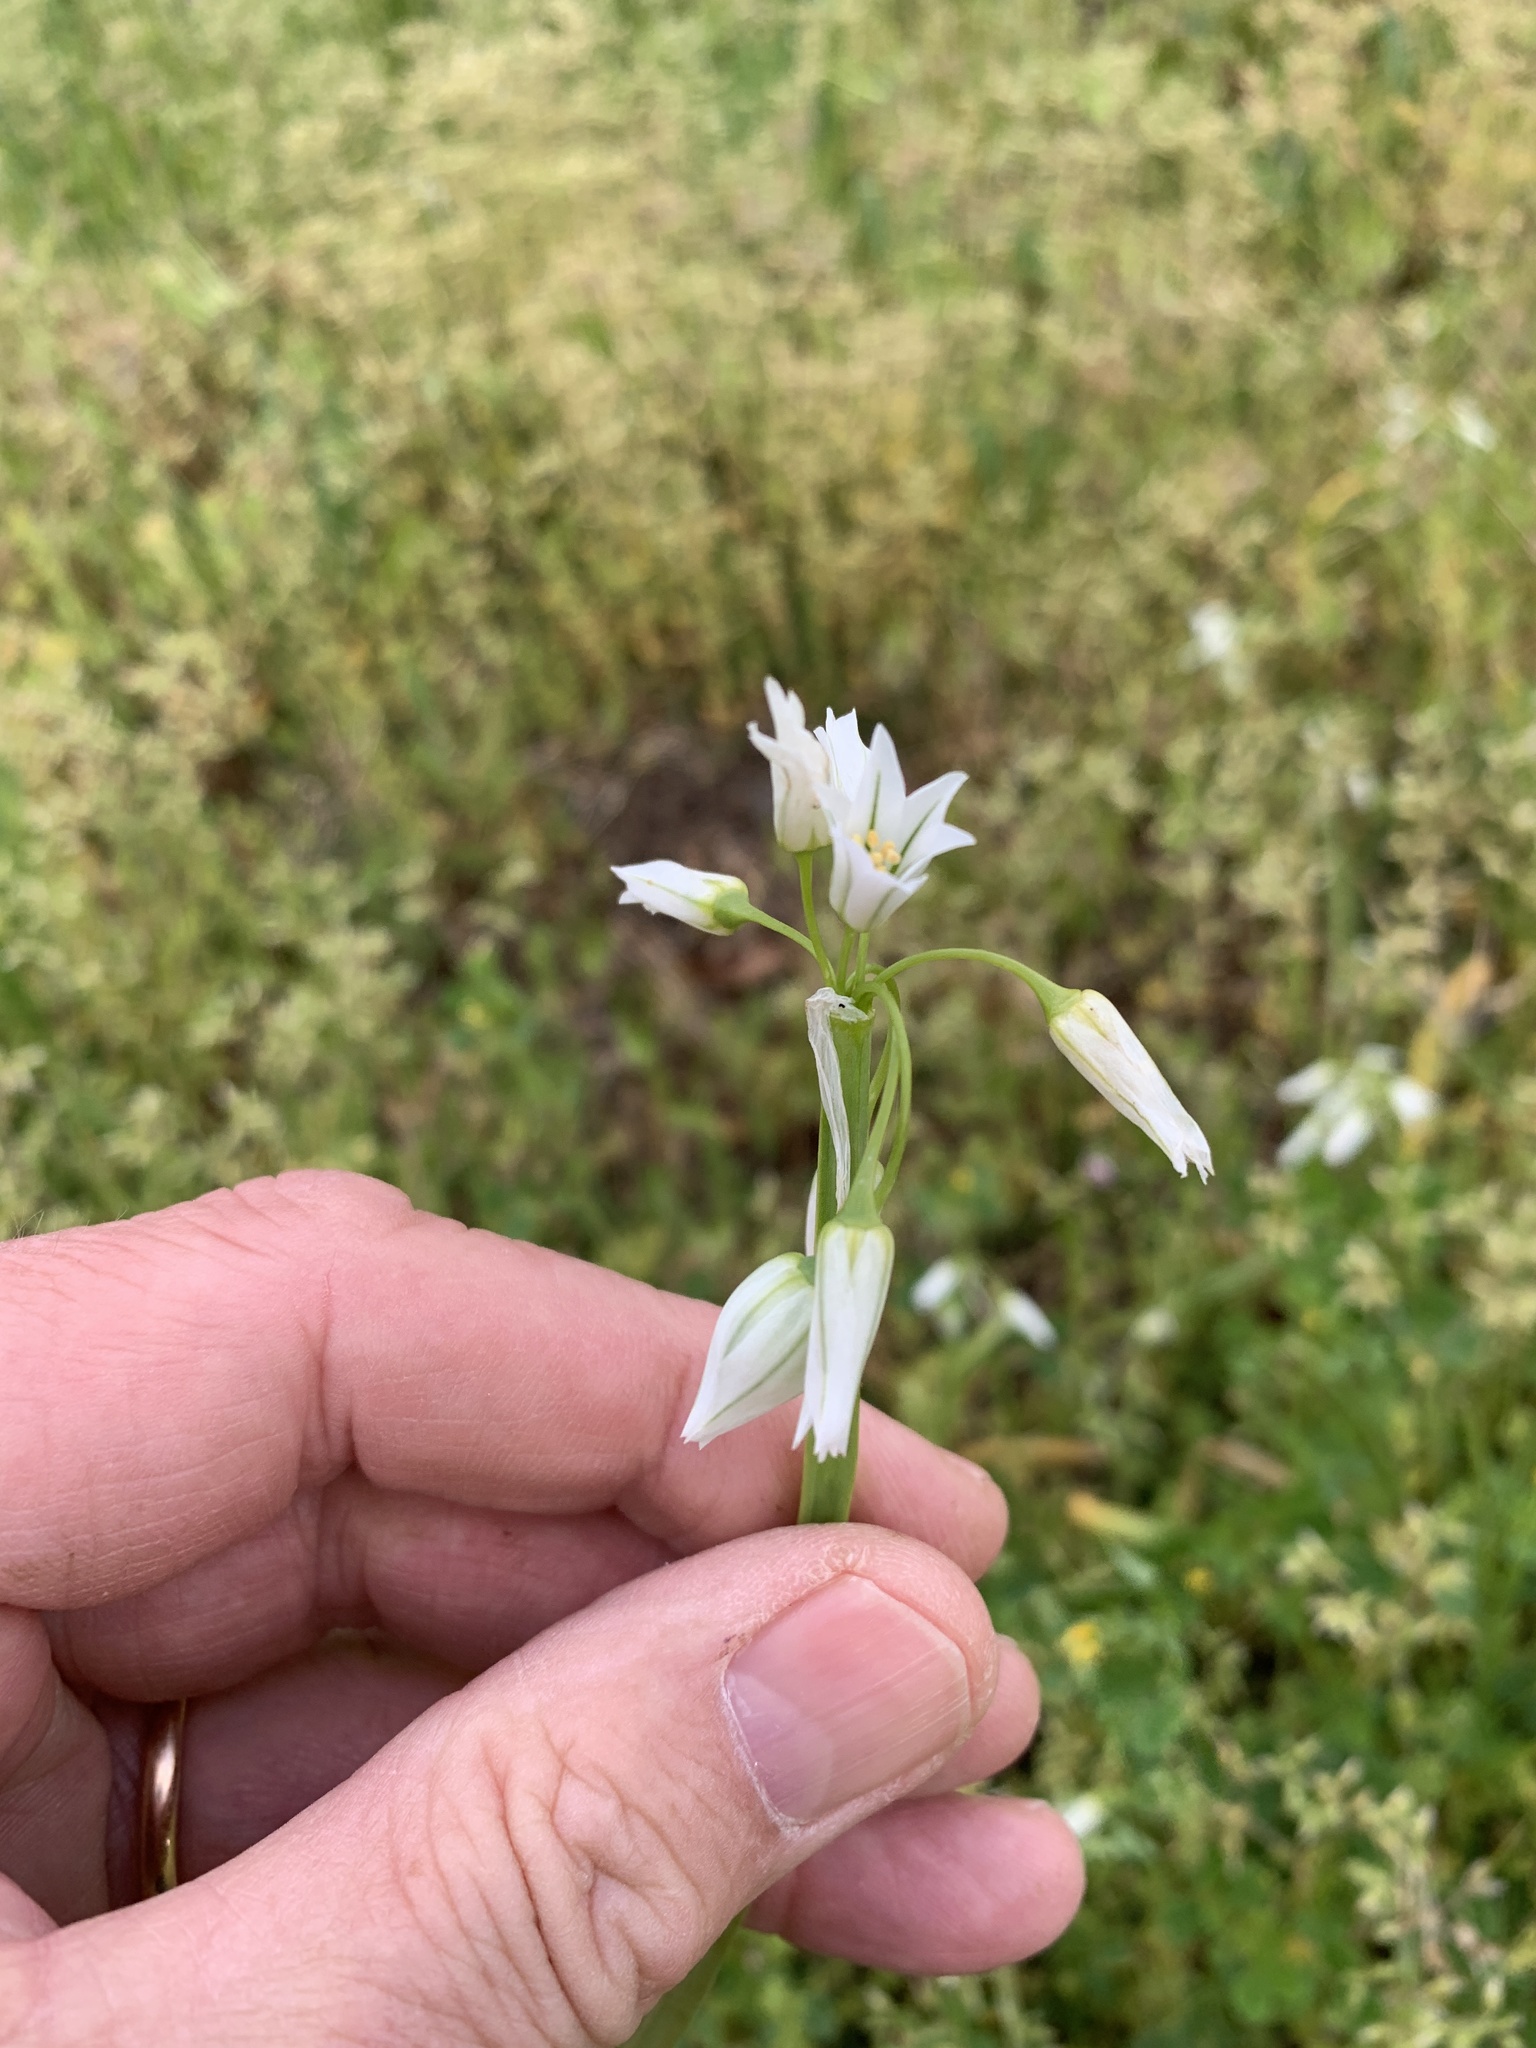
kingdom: Plantae
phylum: Tracheophyta
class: Liliopsida
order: Asparagales
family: Amaryllidaceae
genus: Allium
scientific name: Allium triquetrum
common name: Three-cornered garlic
